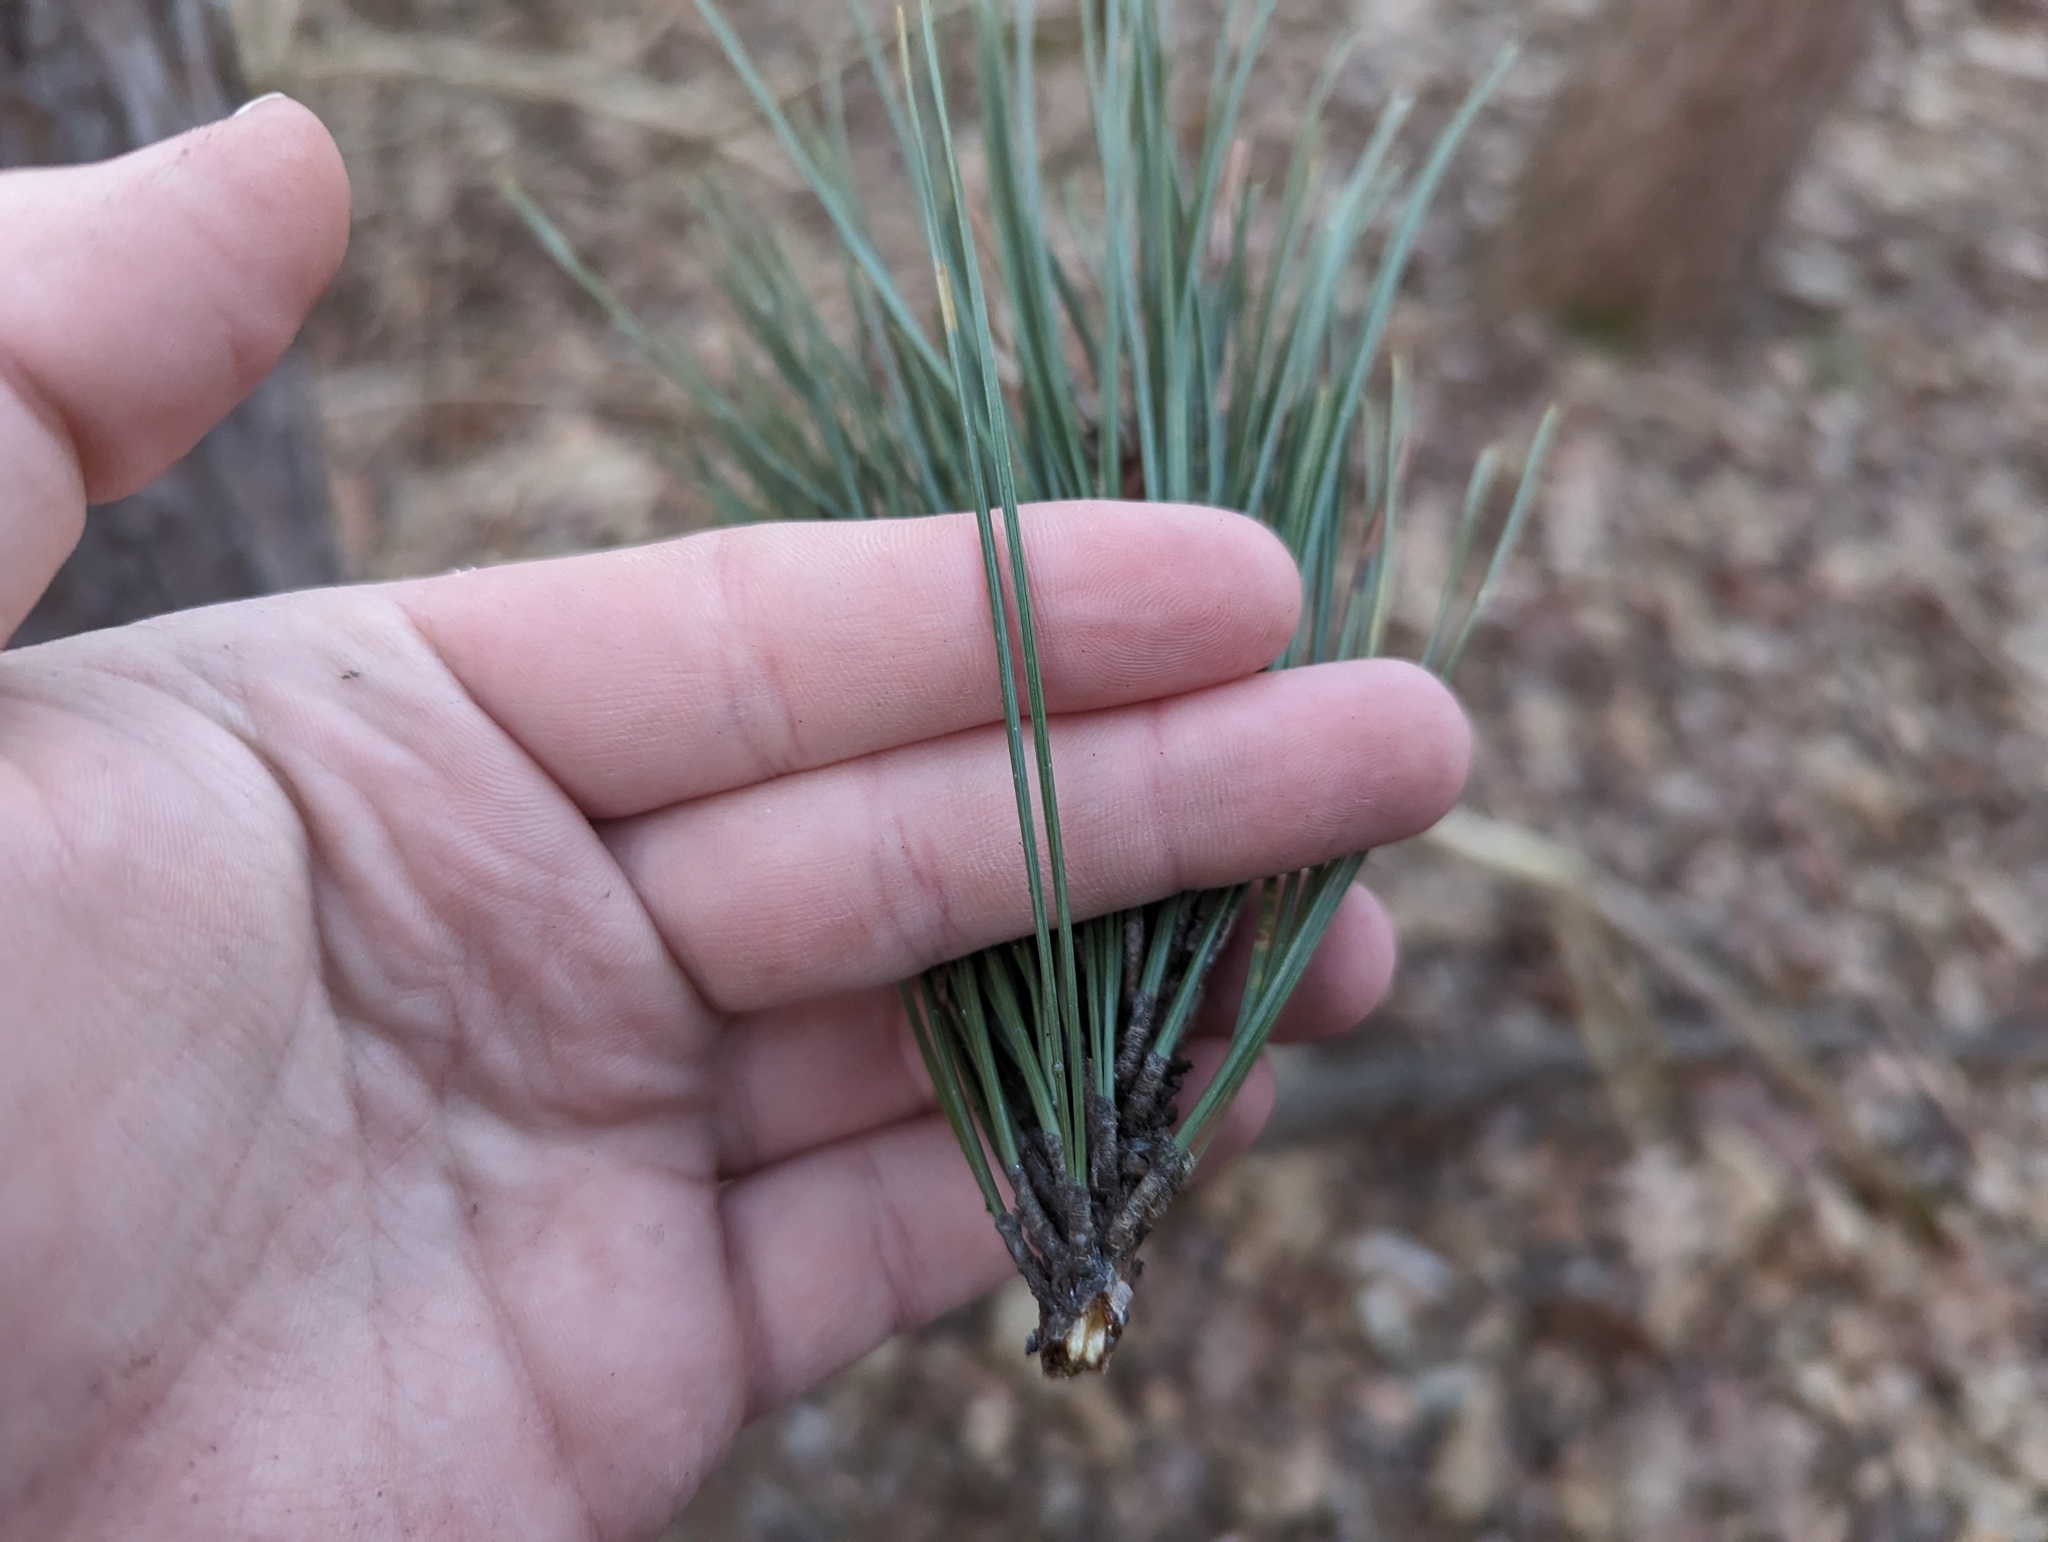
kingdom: Plantae
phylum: Tracheophyta
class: Pinopsida
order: Pinales
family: Pinaceae
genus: Pinus
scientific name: Pinus sylvestris
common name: Scots pine
